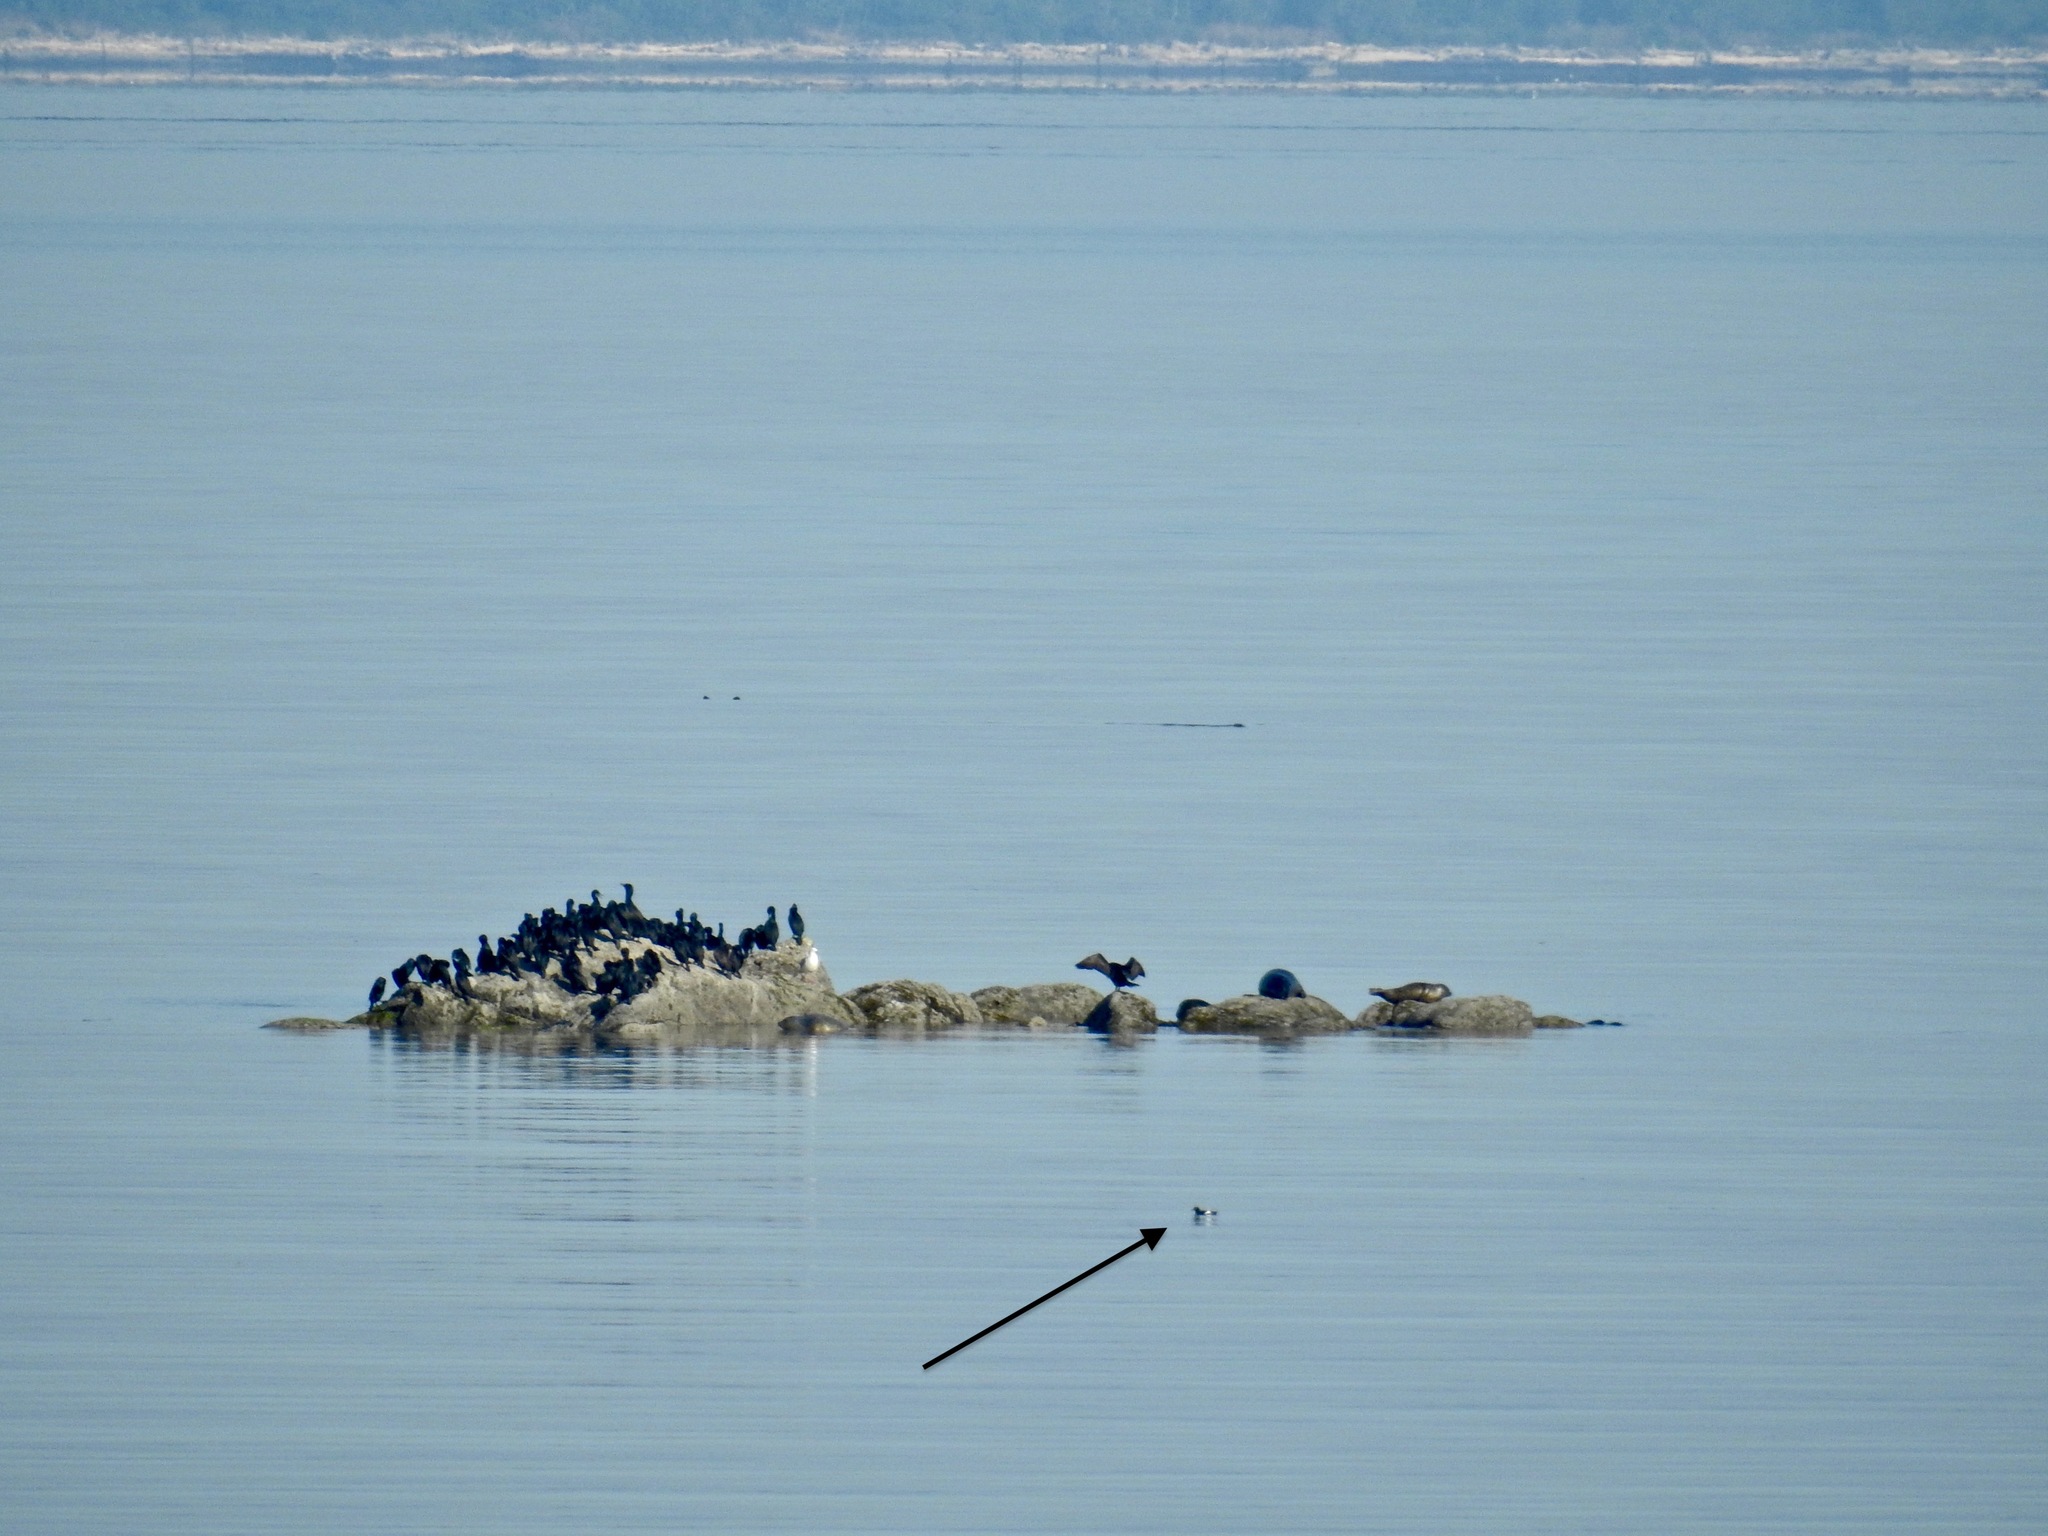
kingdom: Animalia
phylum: Chordata
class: Aves
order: Charadriiformes
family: Alcidae
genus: Cepphus
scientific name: Cepphus columba
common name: Pigeon guillemot
